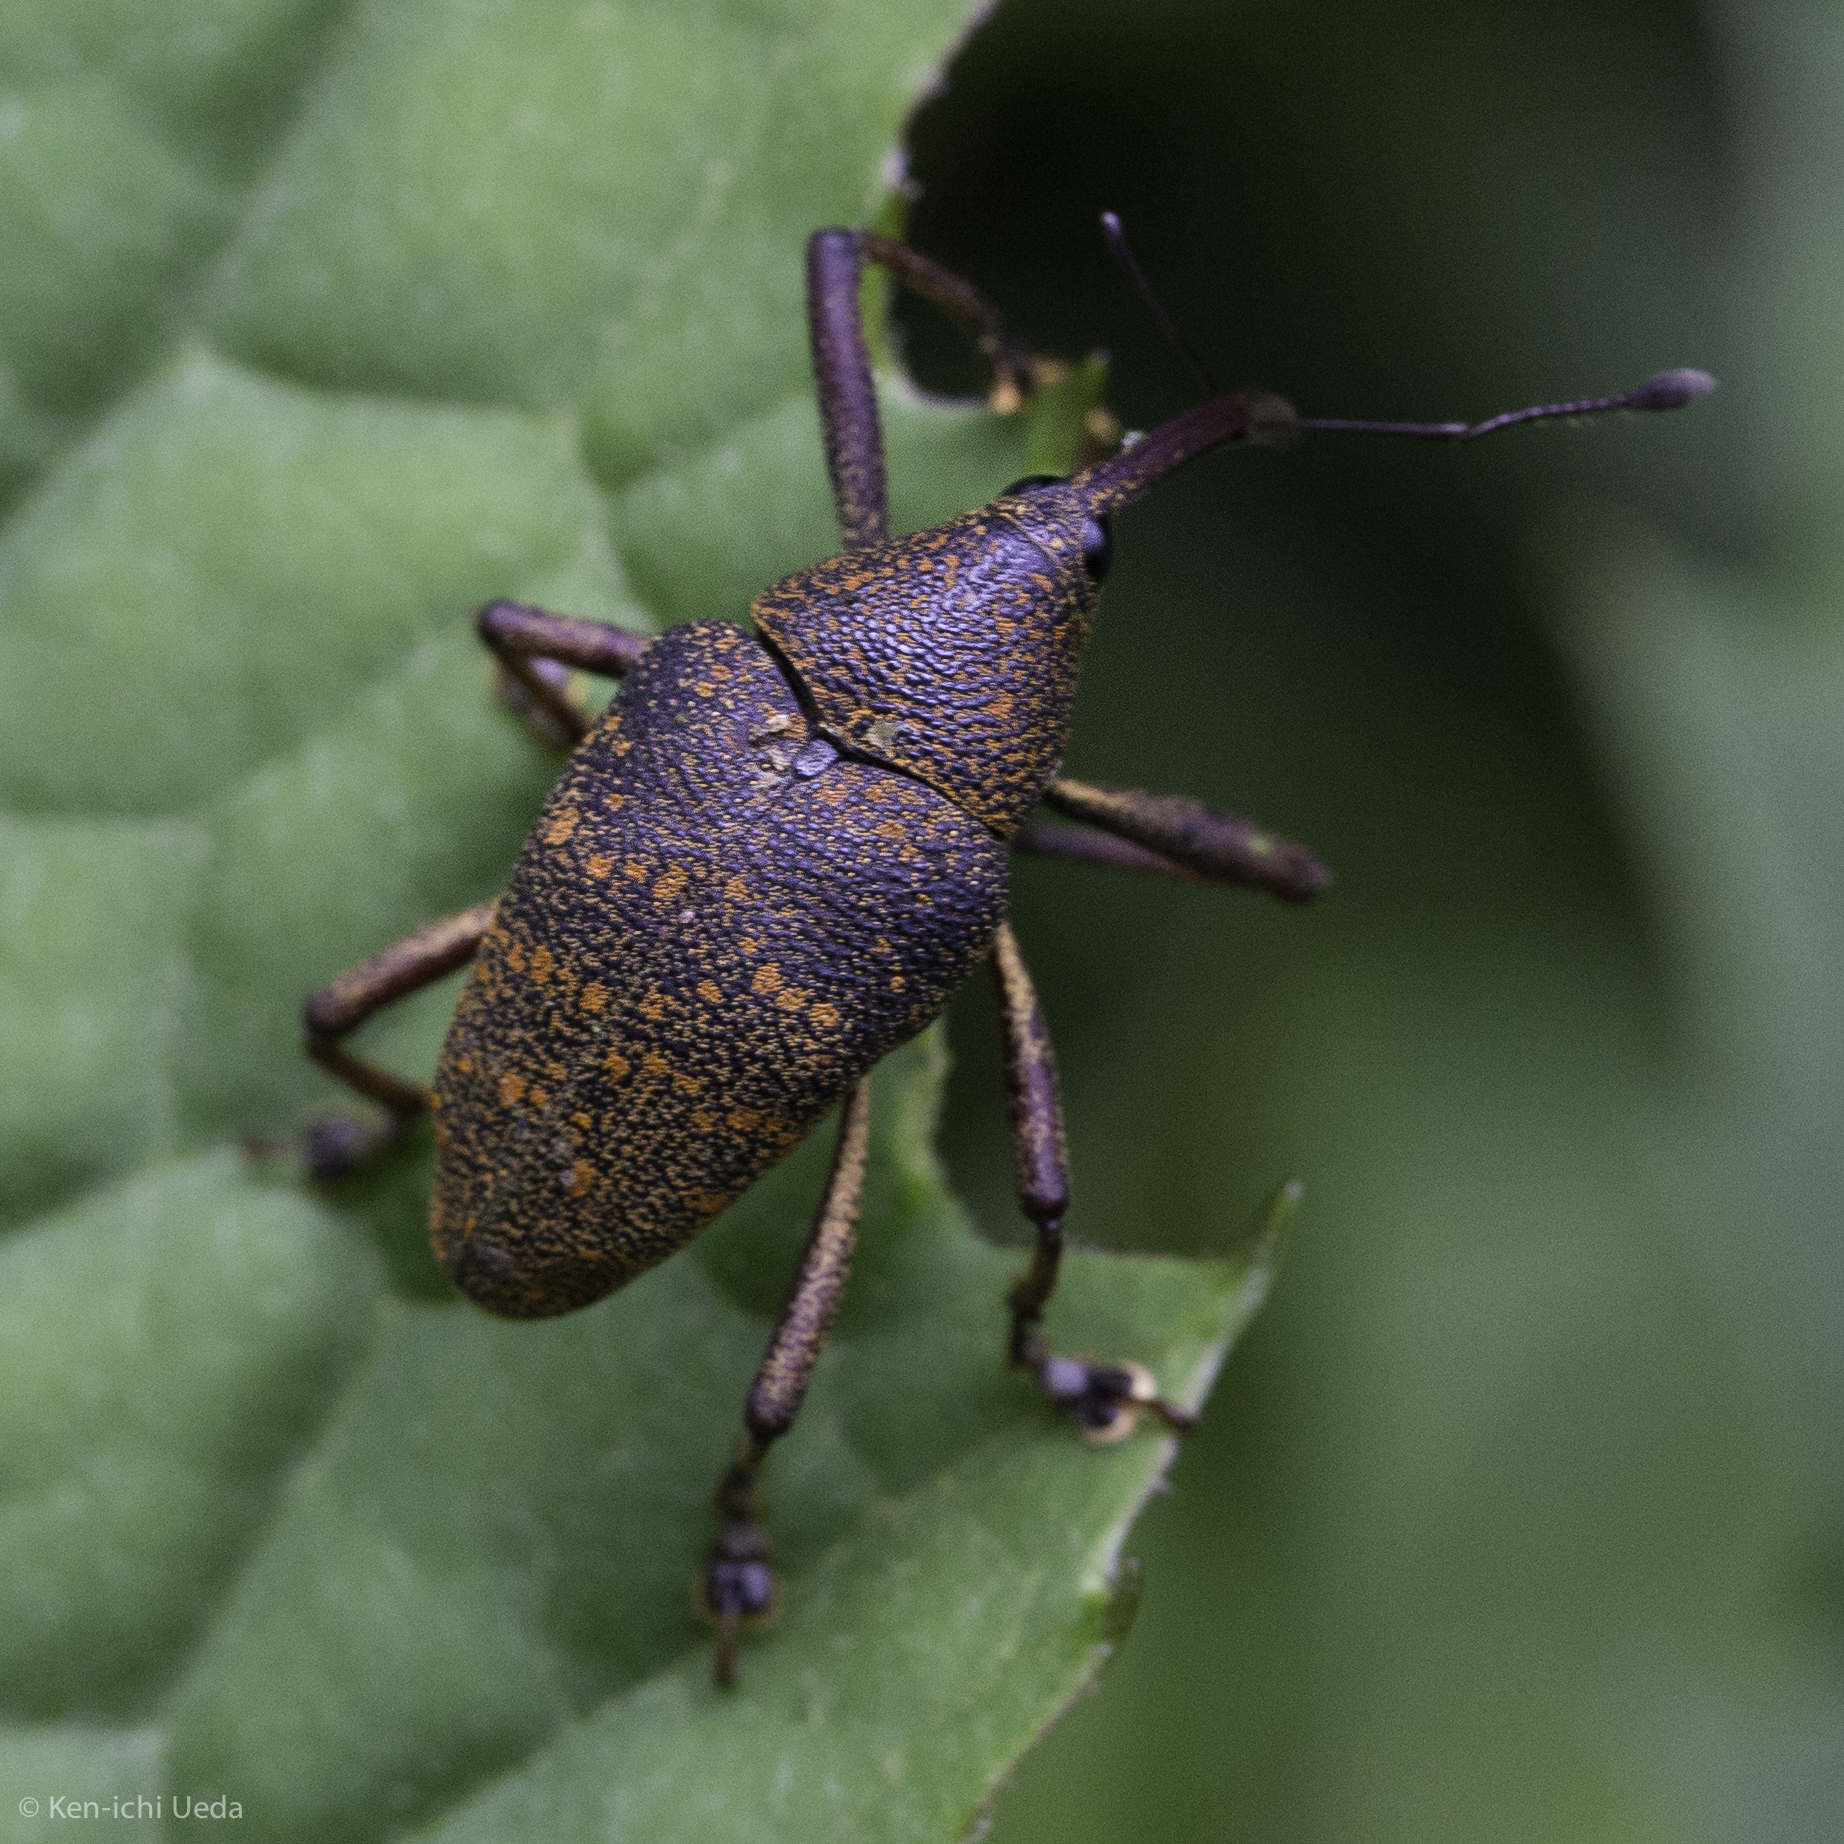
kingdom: Animalia
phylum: Arthropoda
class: Insecta
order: Coleoptera
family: Curculionidae
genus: Cholus
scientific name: Cholus orosiensis
